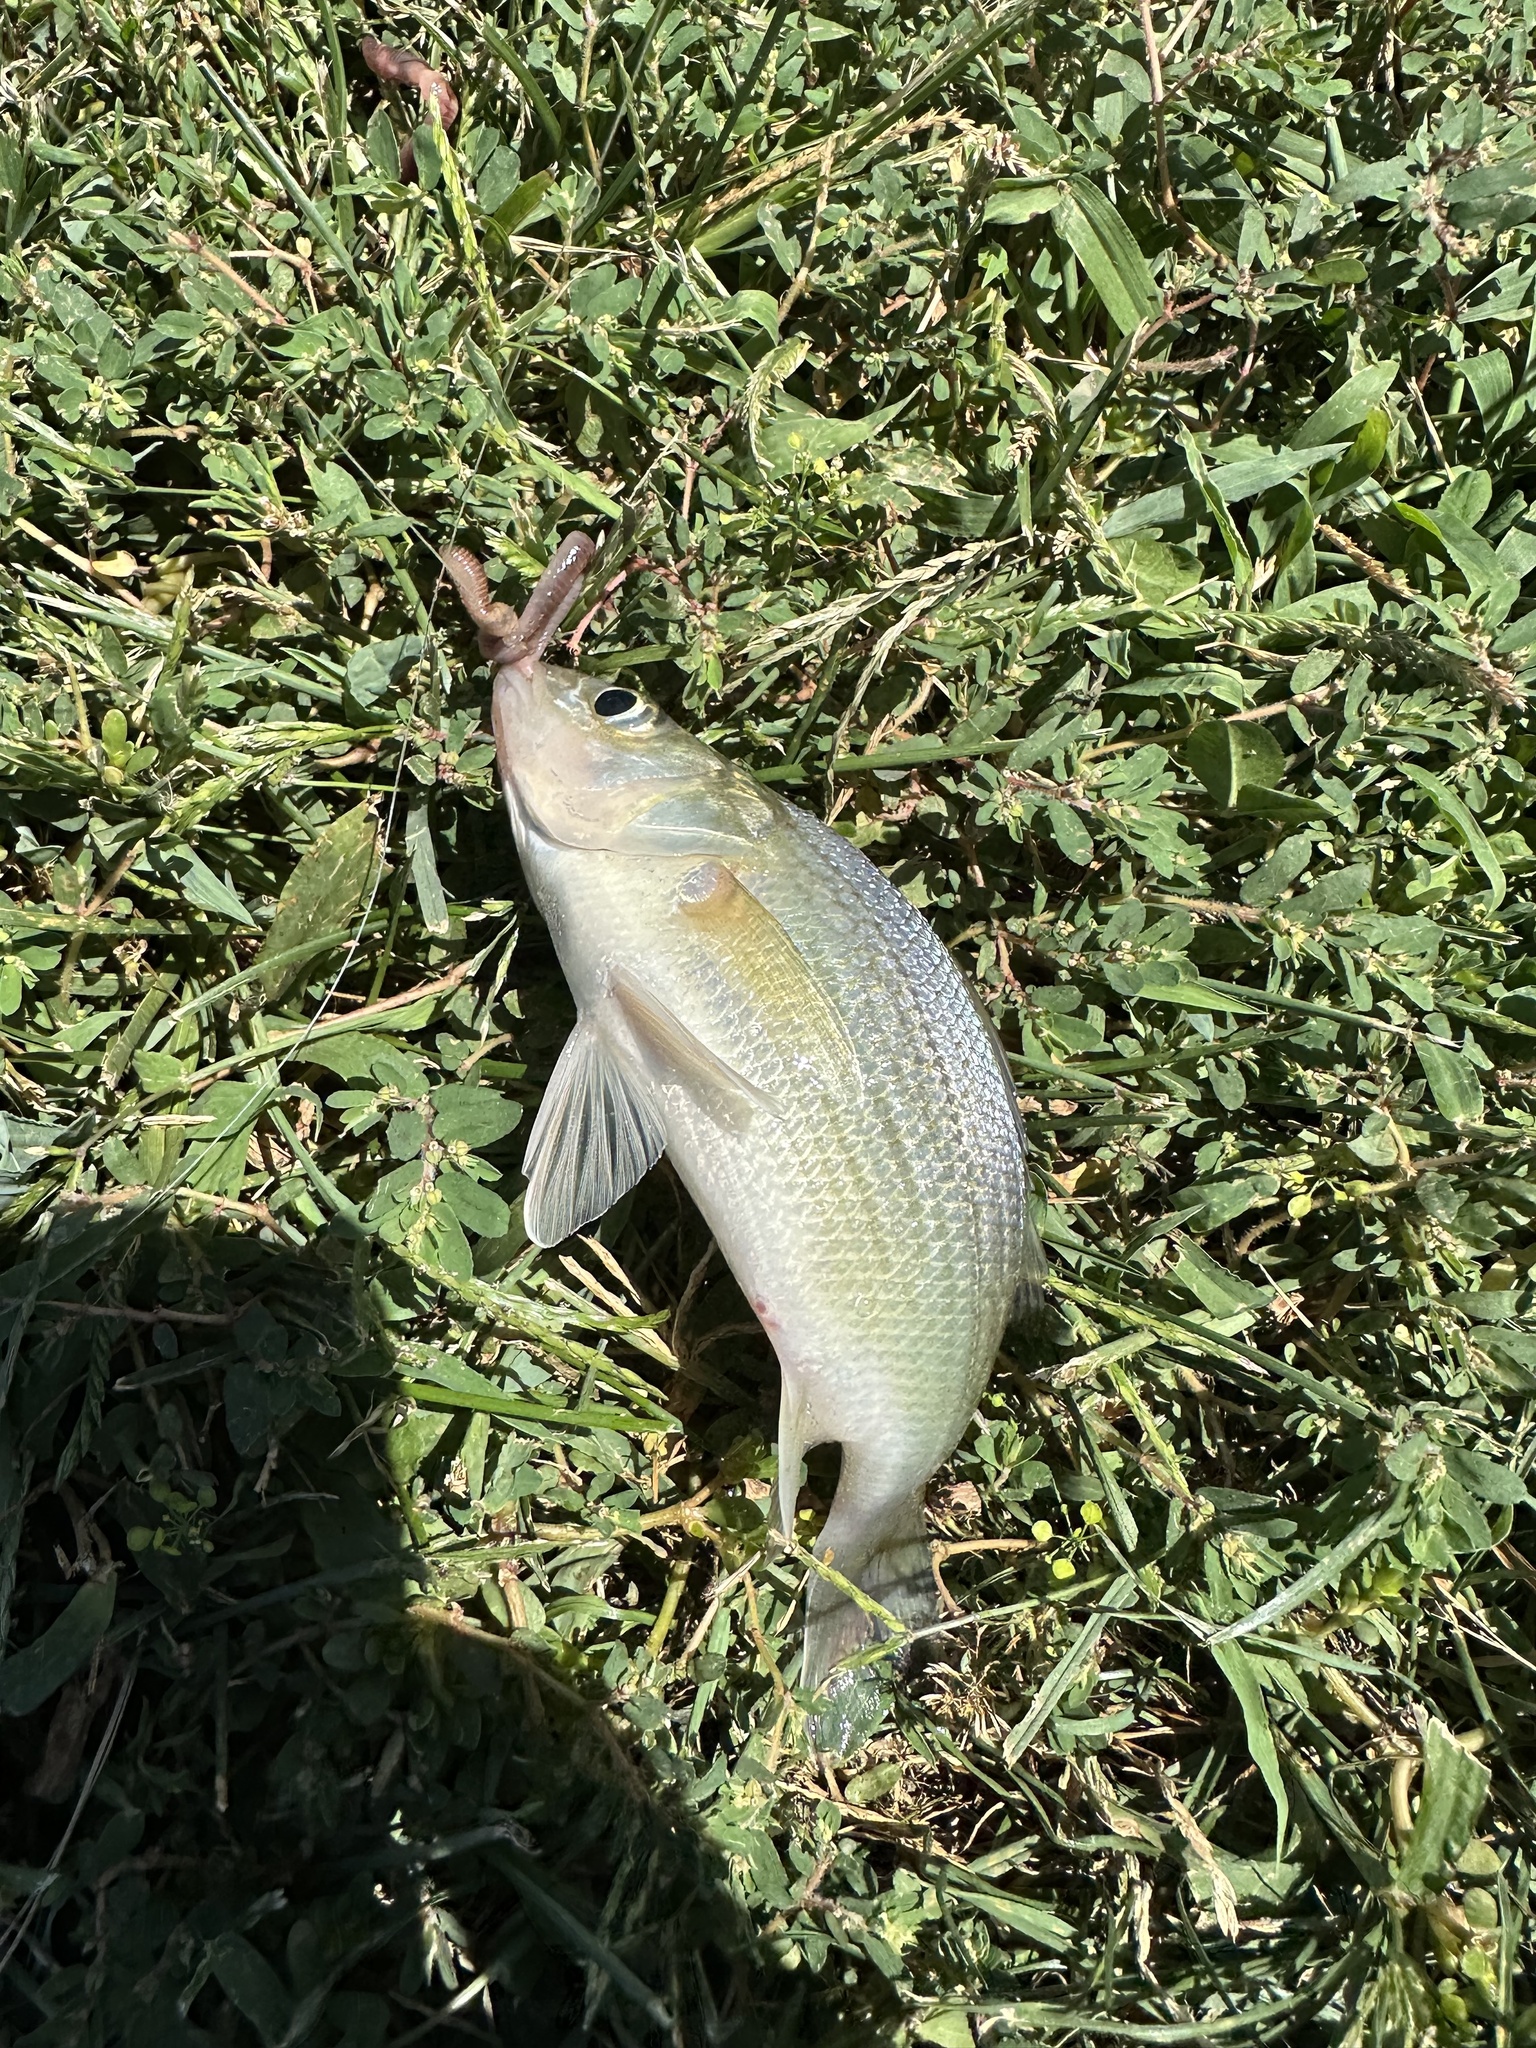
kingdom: Animalia
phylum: Chordata
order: Perciformes
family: Moronidae
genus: Morone
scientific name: Morone americana
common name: White perch
